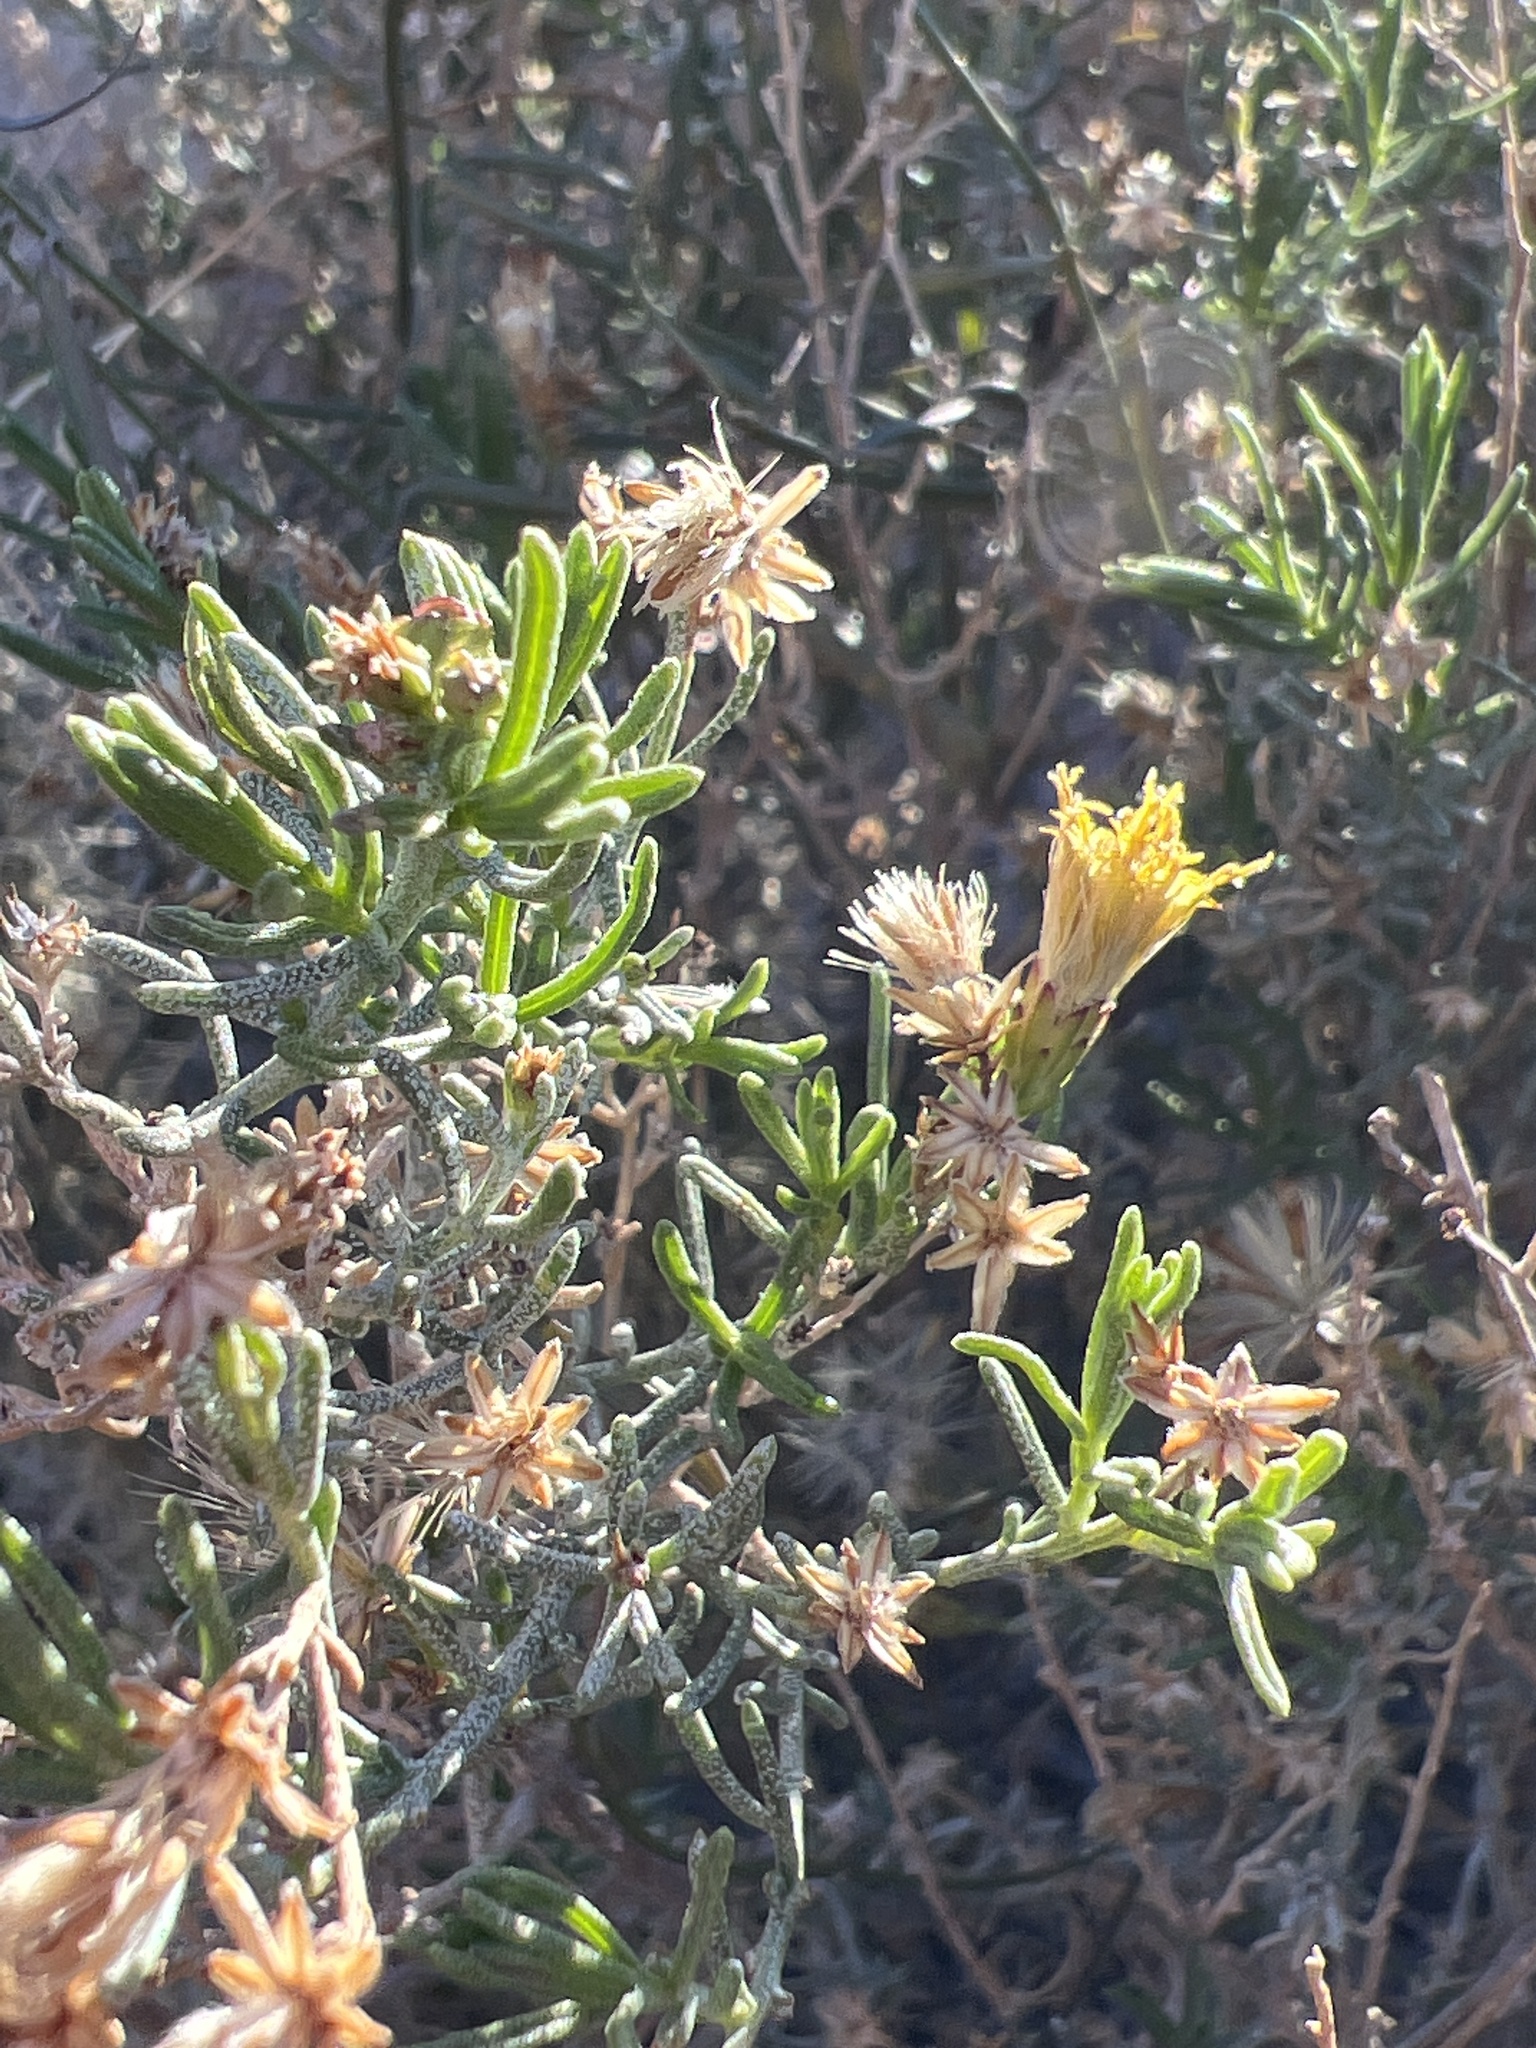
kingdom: Plantae
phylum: Tracheophyta
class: Magnoliopsida
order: Asterales
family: Asteraceae
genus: Ericameria
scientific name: Ericameria brachylepis
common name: Boundary goldenbush
